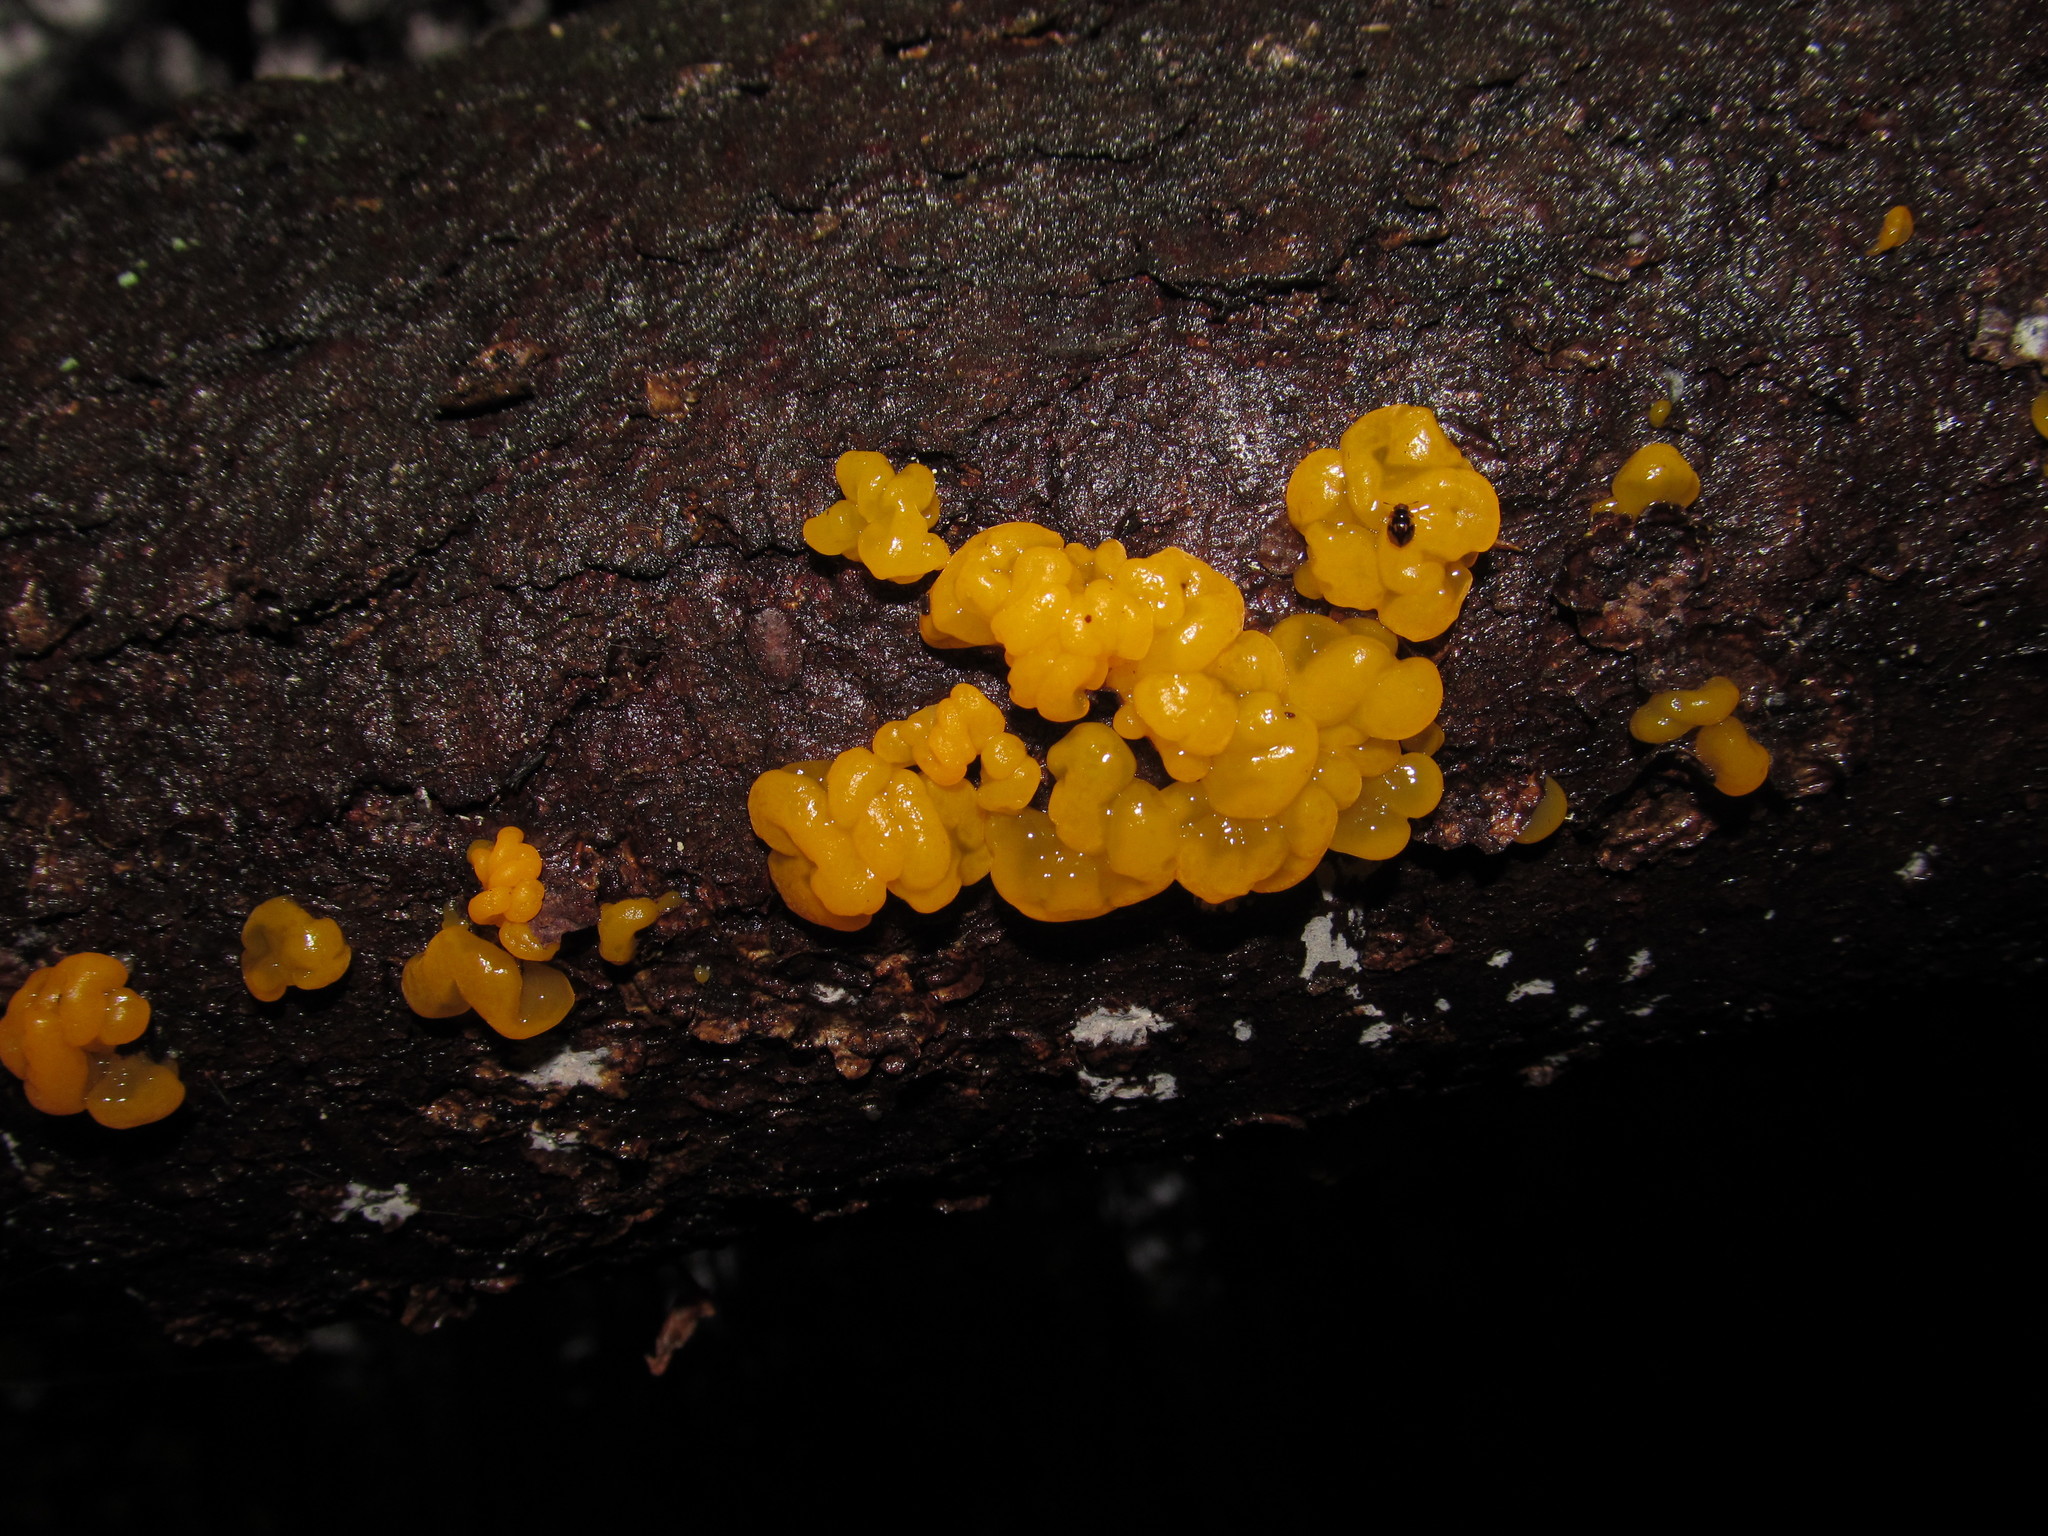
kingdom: Fungi
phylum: Basidiomycota
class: Dacrymycetes
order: Dacrymycetales
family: Dacrymycetaceae
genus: Dacrymyces
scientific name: Dacrymyces chrysospermus
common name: Orange jelly spot
